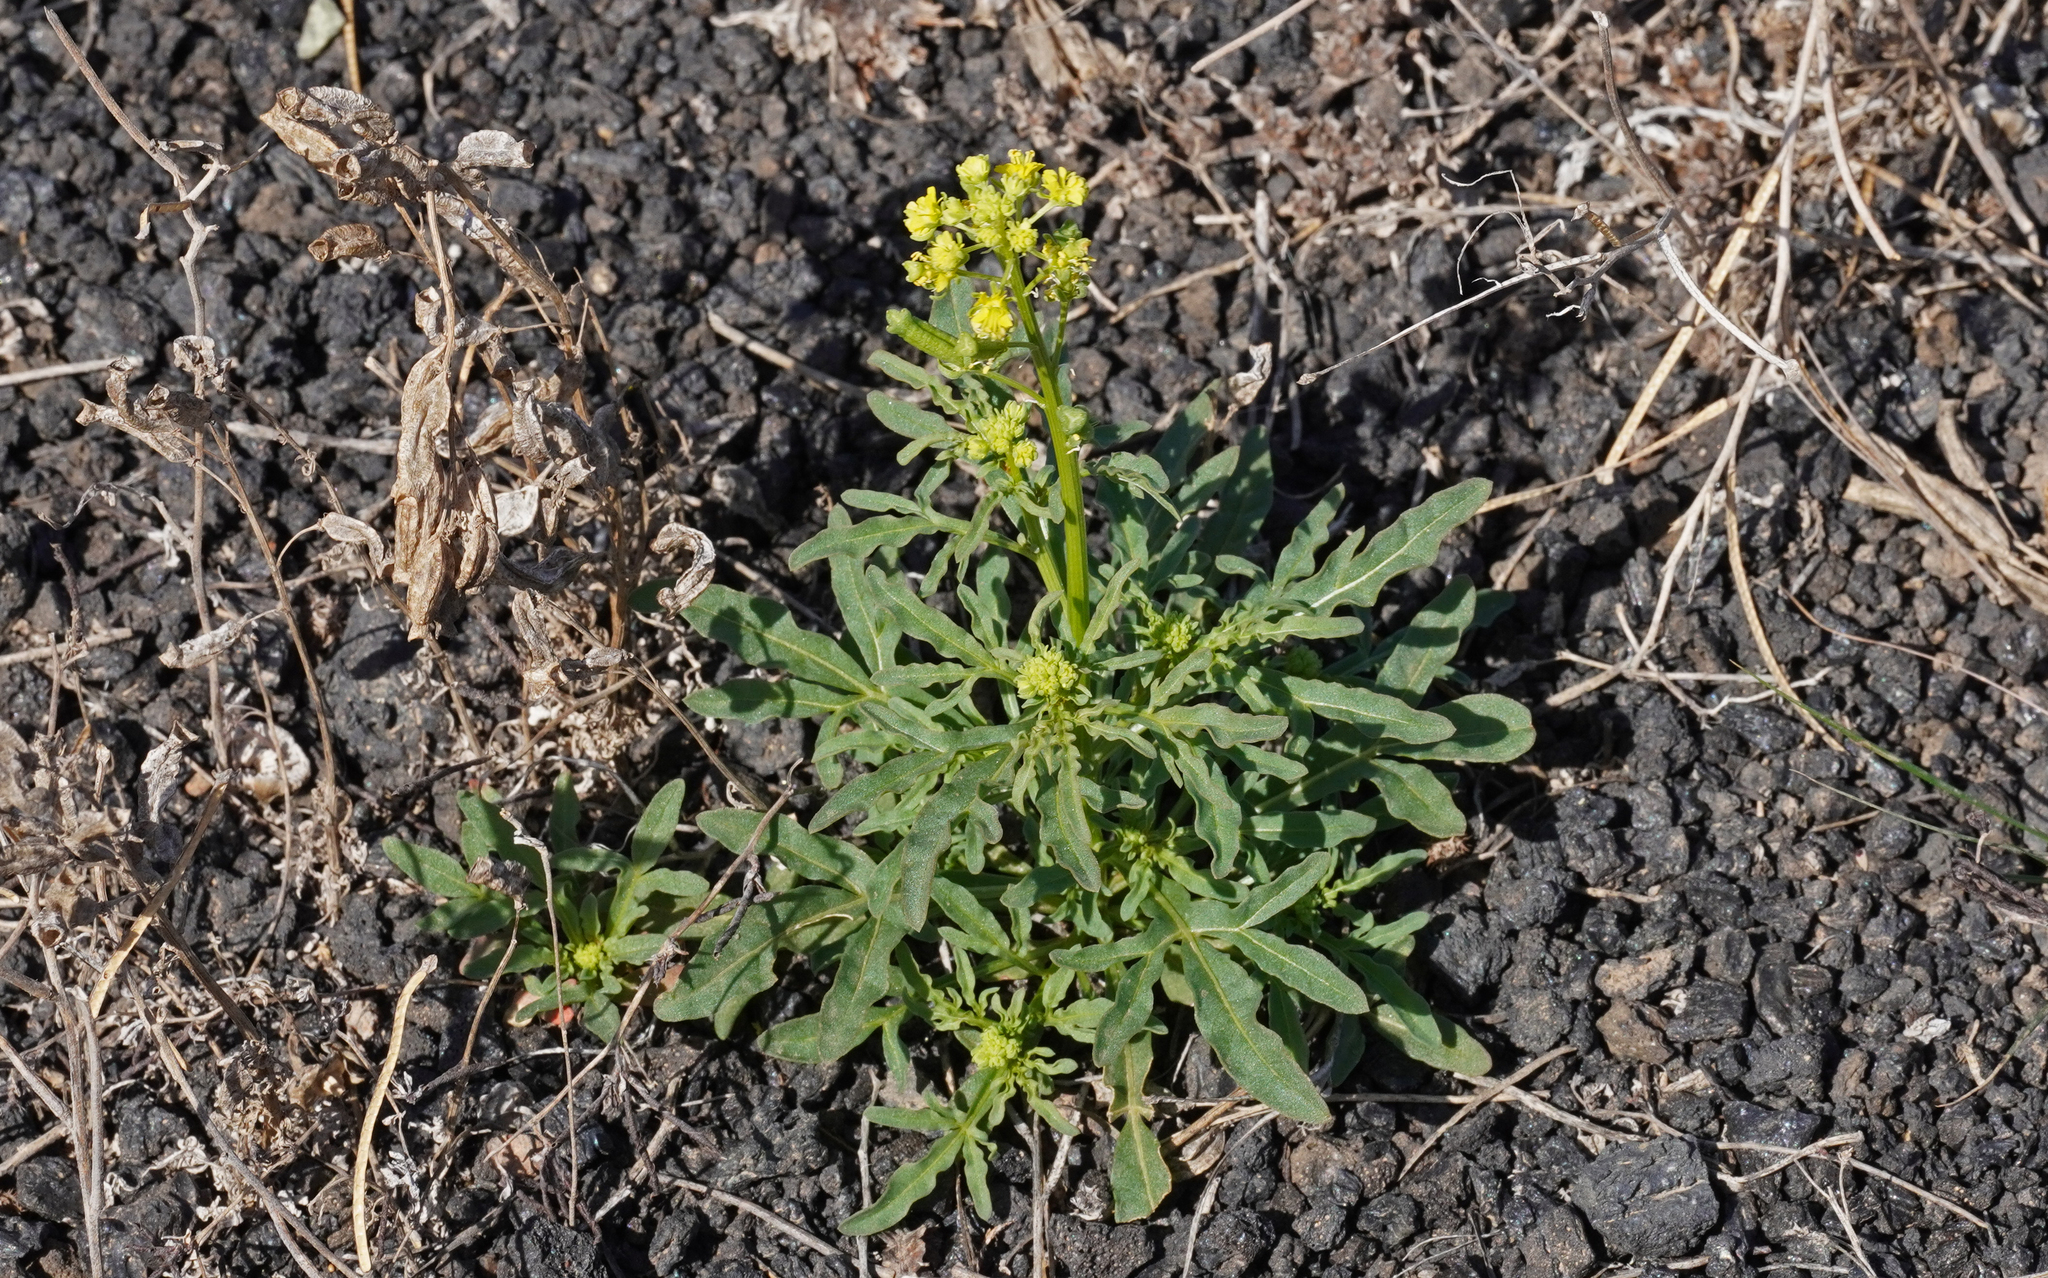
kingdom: Plantae
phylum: Tracheophyta
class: Magnoliopsida
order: Brassicales
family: Resedaceae
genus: Reseda
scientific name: Reseda crystallina
